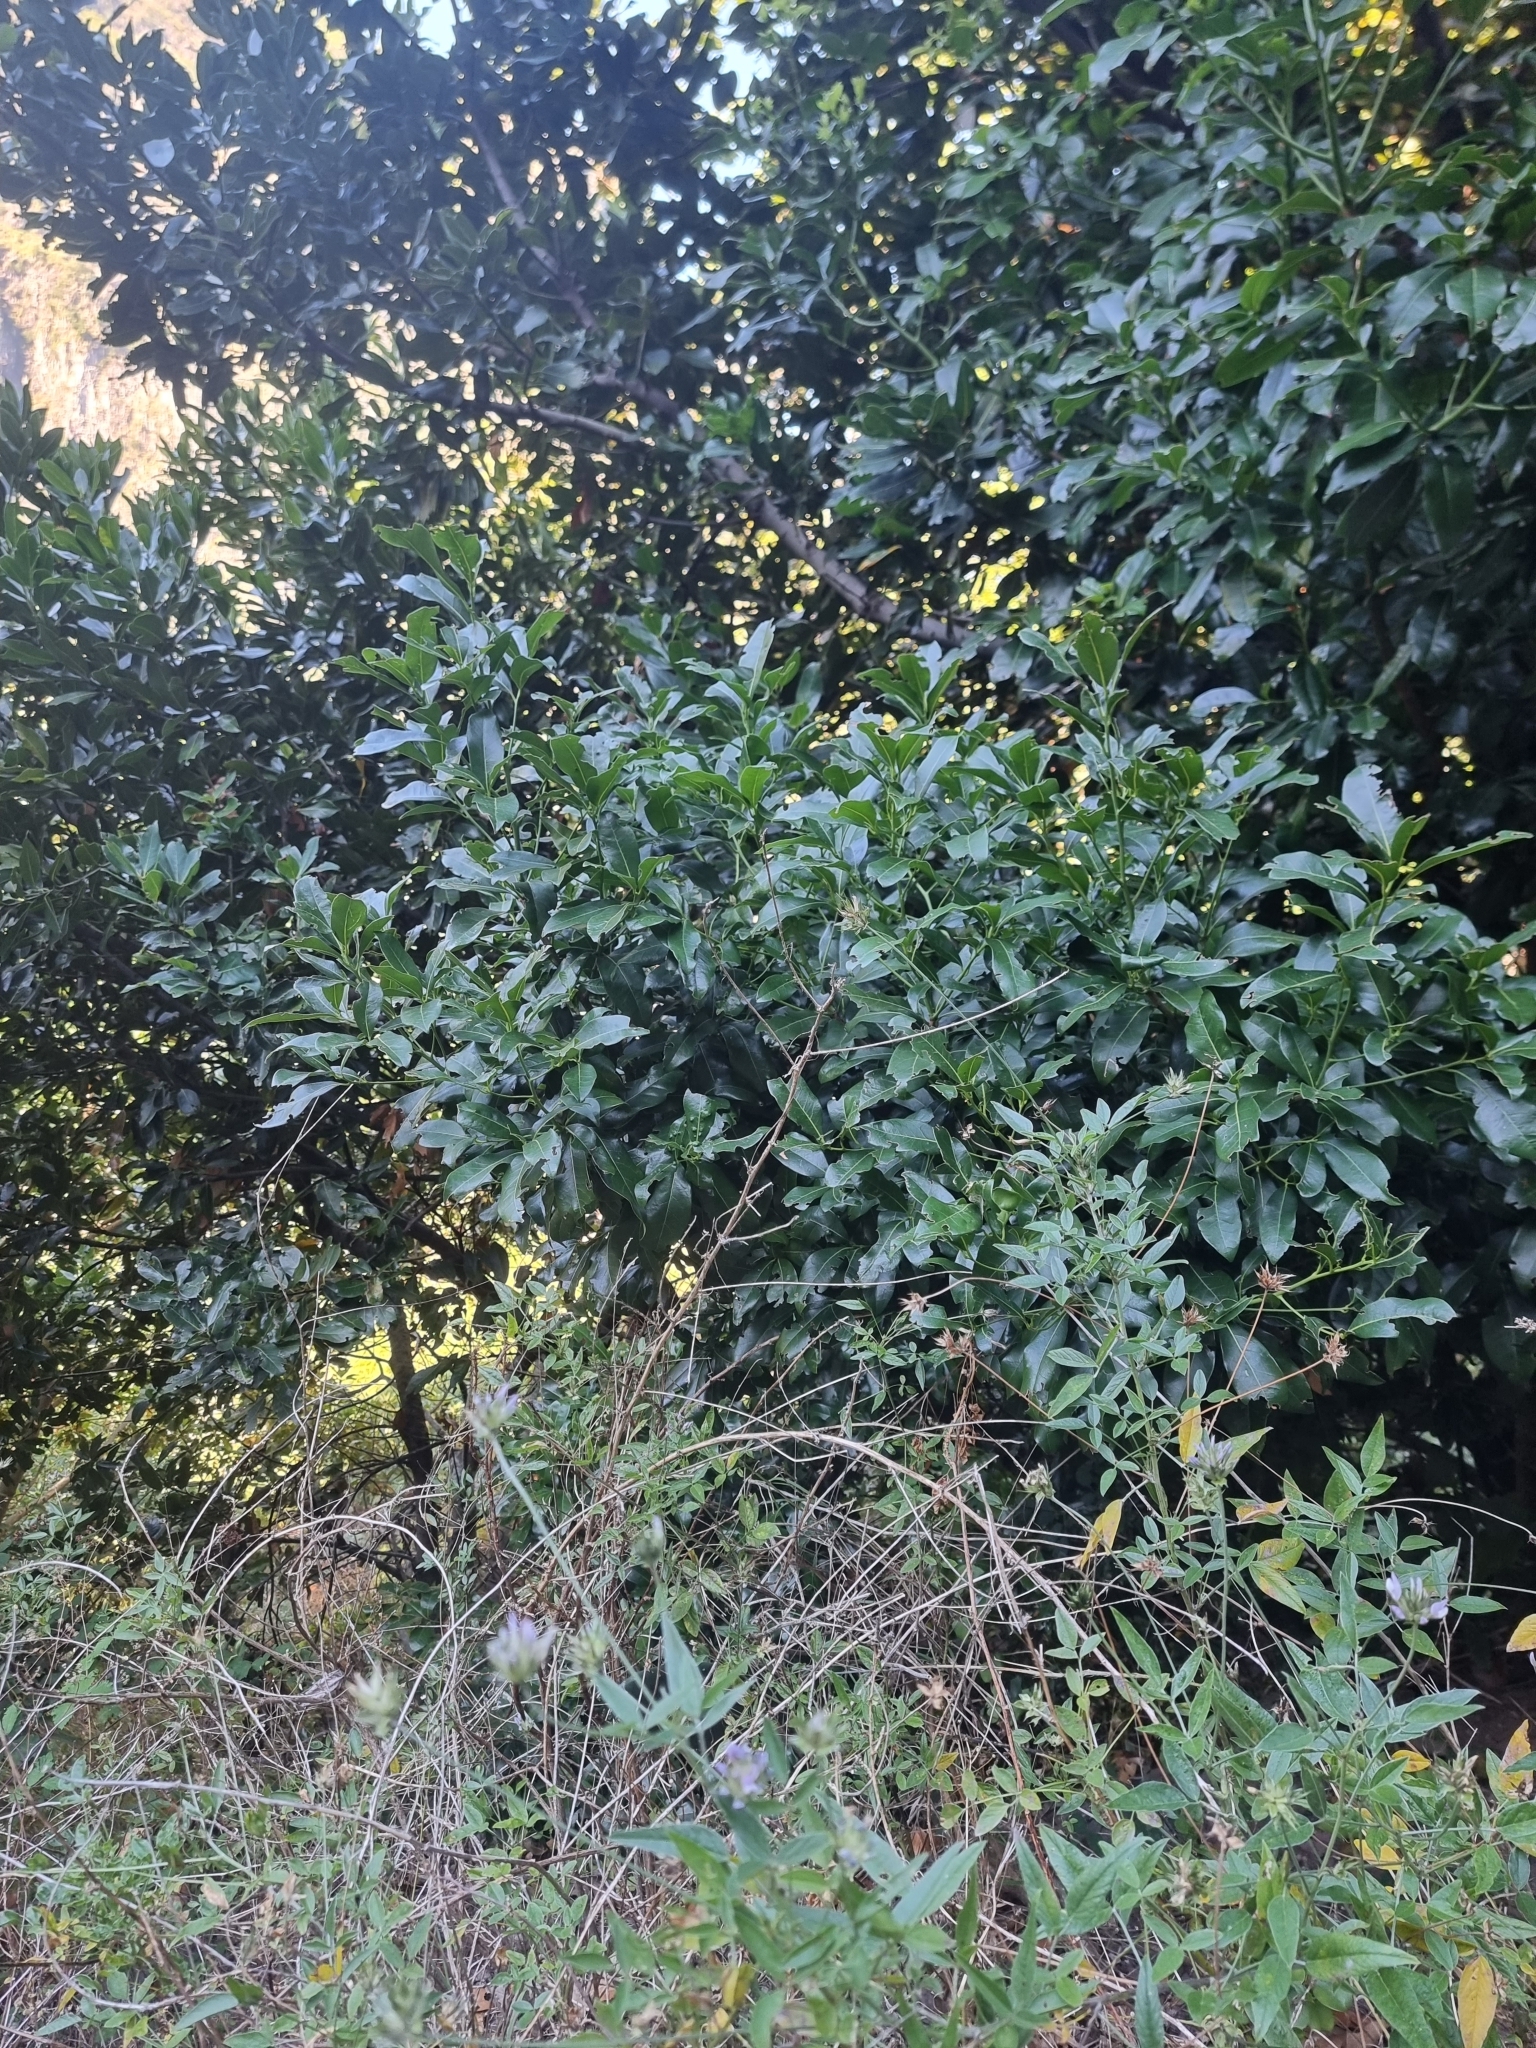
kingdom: Plantae
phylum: Tracheophyta
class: Magnoliopsida
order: Laurales
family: Lauraceae
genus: Apollonias
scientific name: Apollonias barbujana
